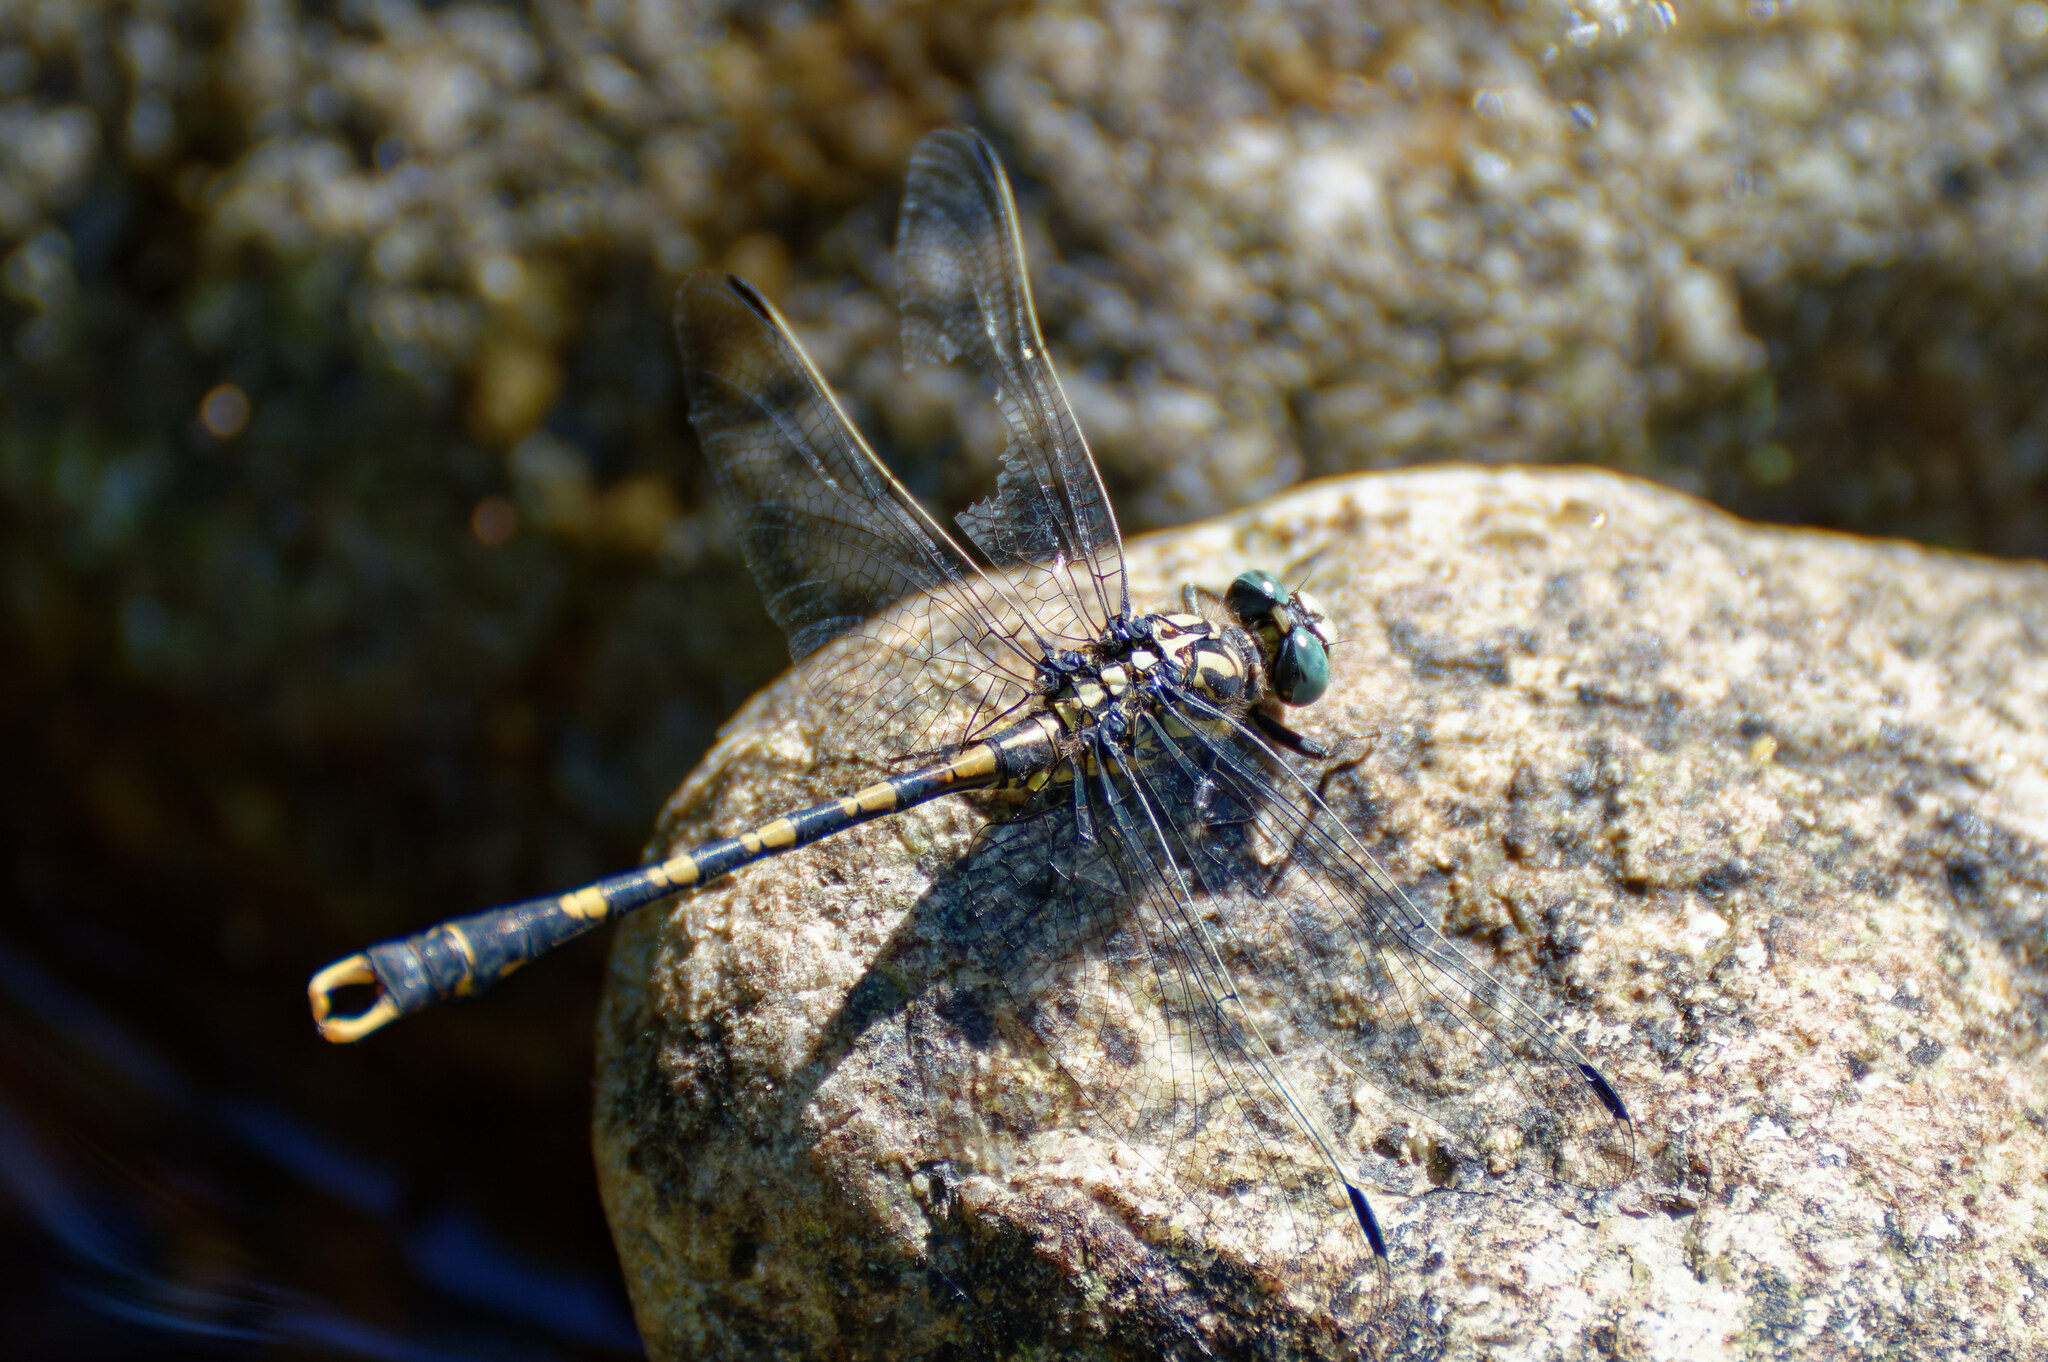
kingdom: Animalia
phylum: Arthropoda
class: Insecta
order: Odonata
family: Gomphidae
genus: Onychogomphus
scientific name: Onychogomphus uncatus
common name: Large pincertail
